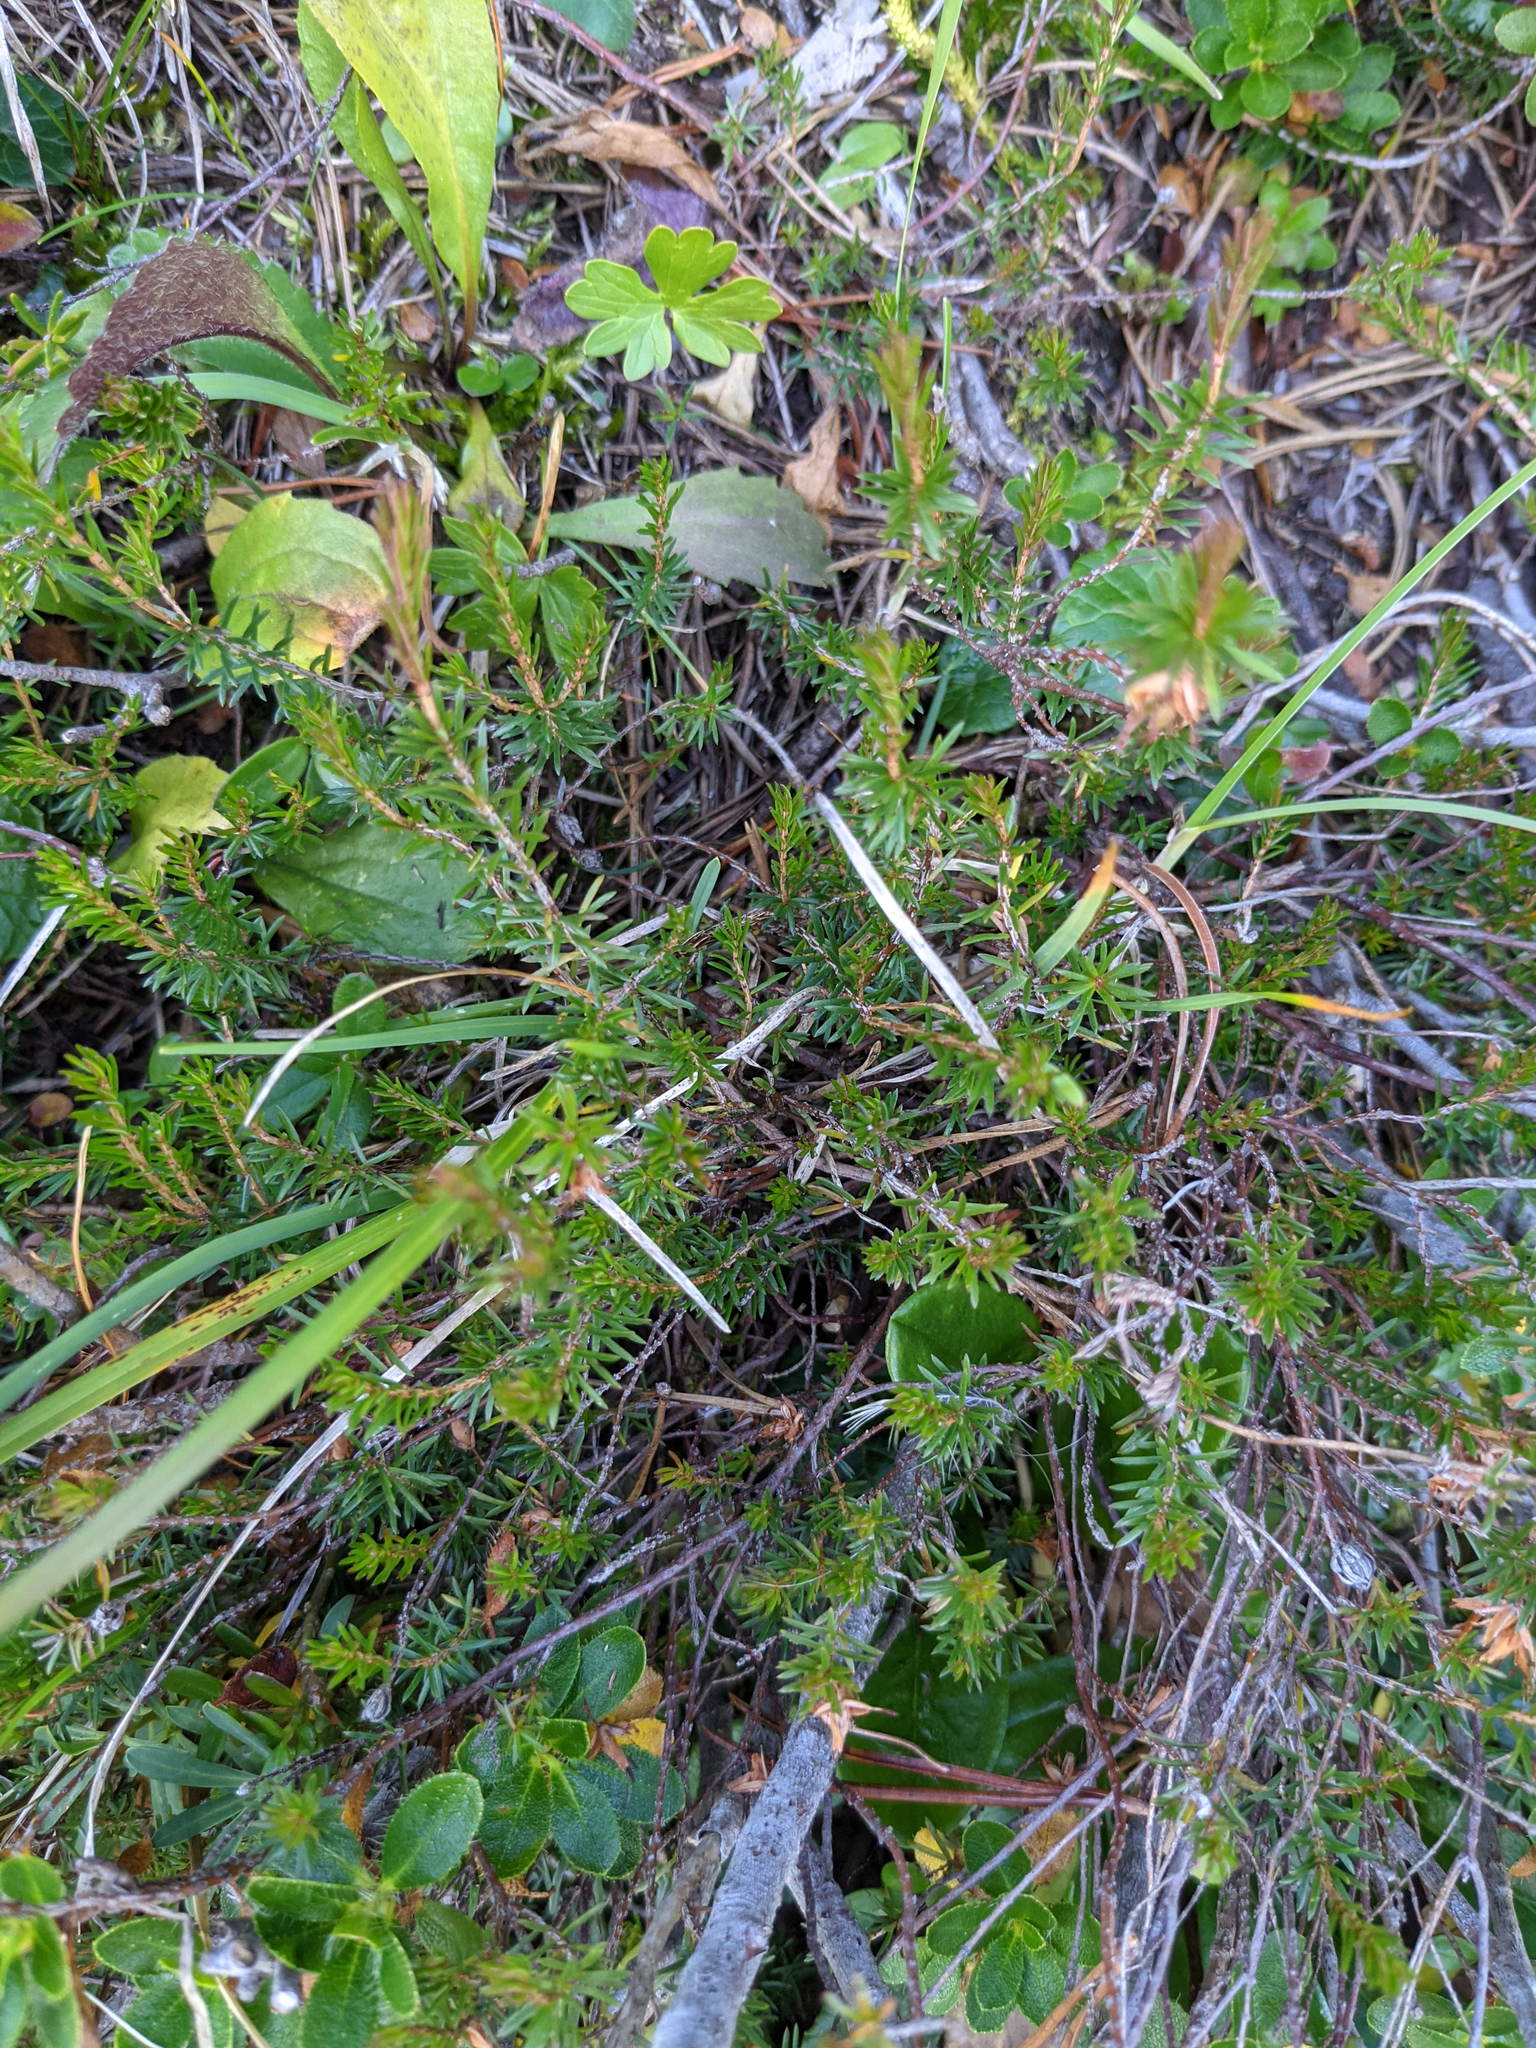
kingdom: Plantae
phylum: Tracheophyta
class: Magnoliopsida
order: Ericales
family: Ericaceae
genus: Erica
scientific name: Erica carnea
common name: Winter heath
